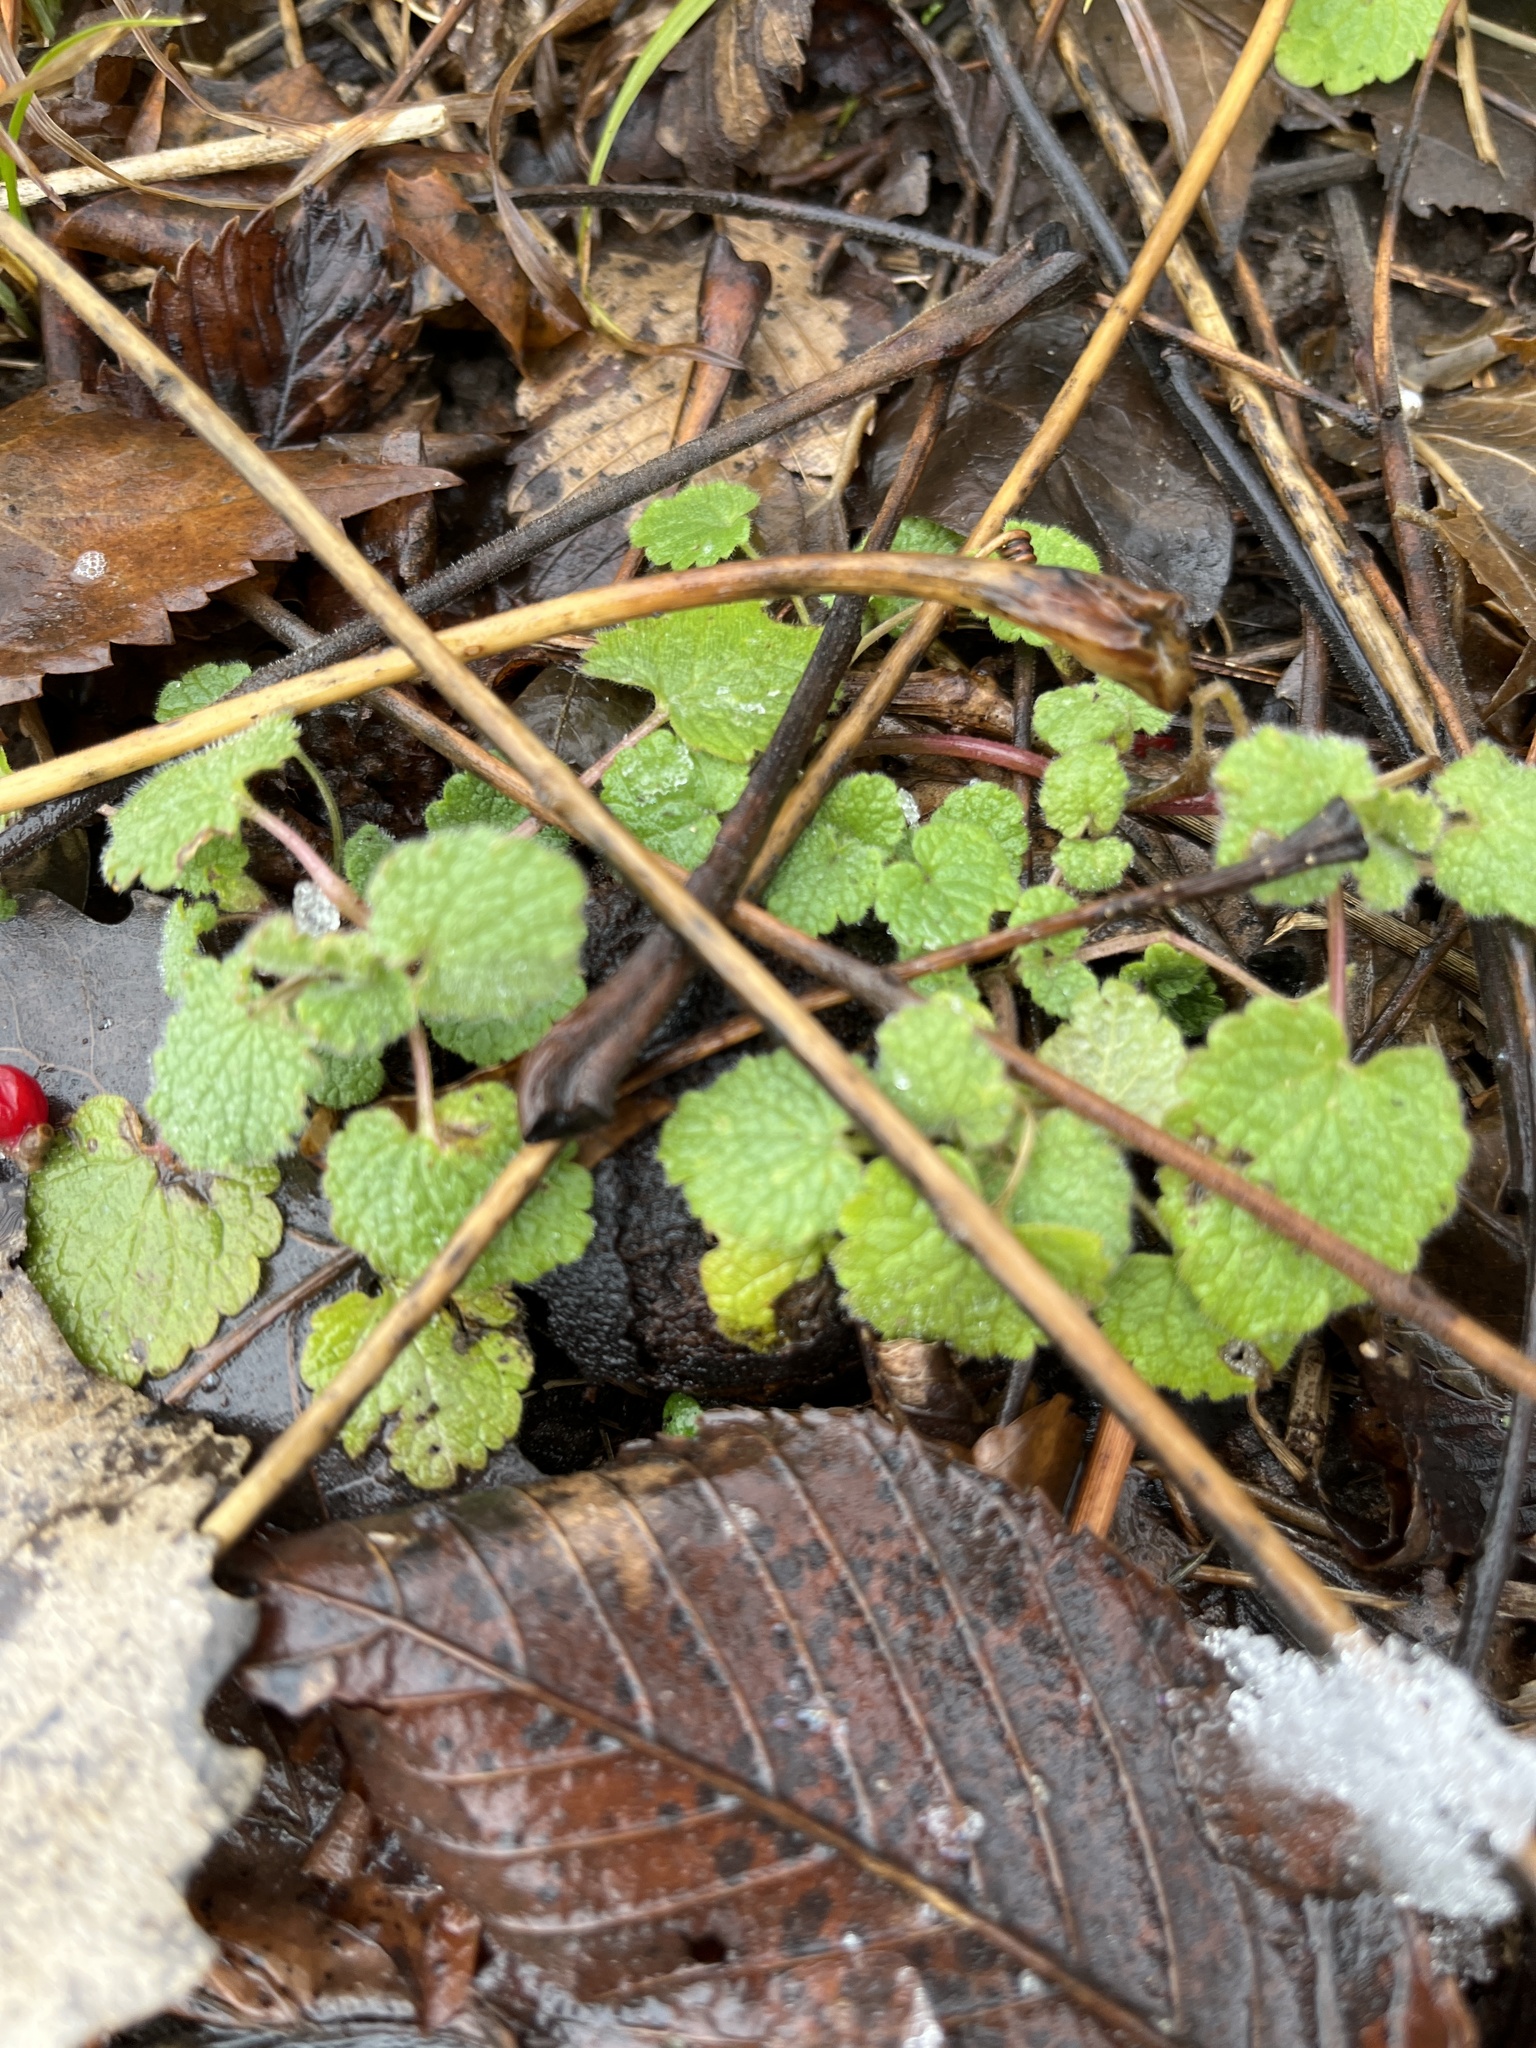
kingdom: Plantae
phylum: Tracheophyta
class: Magnoliopsida
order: Lamiales
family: Lamiaceae
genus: Lamium
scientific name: Lamium purpureum
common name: Red dead-nettle
